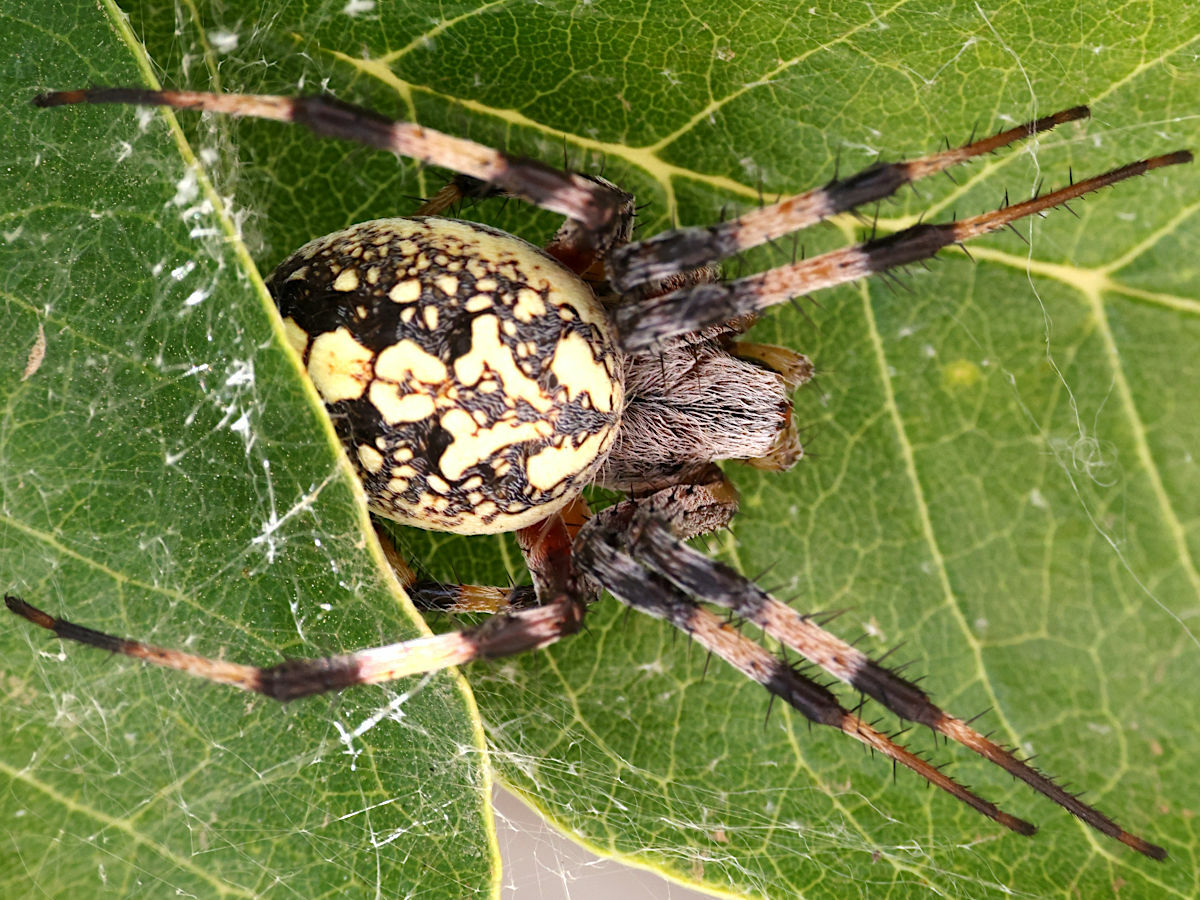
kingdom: Animalia
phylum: Arthropoda
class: Arachnida
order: Araneae
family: Araneidae
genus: Neoscona
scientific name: Neoscona oaxacensis
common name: Orb weavers
